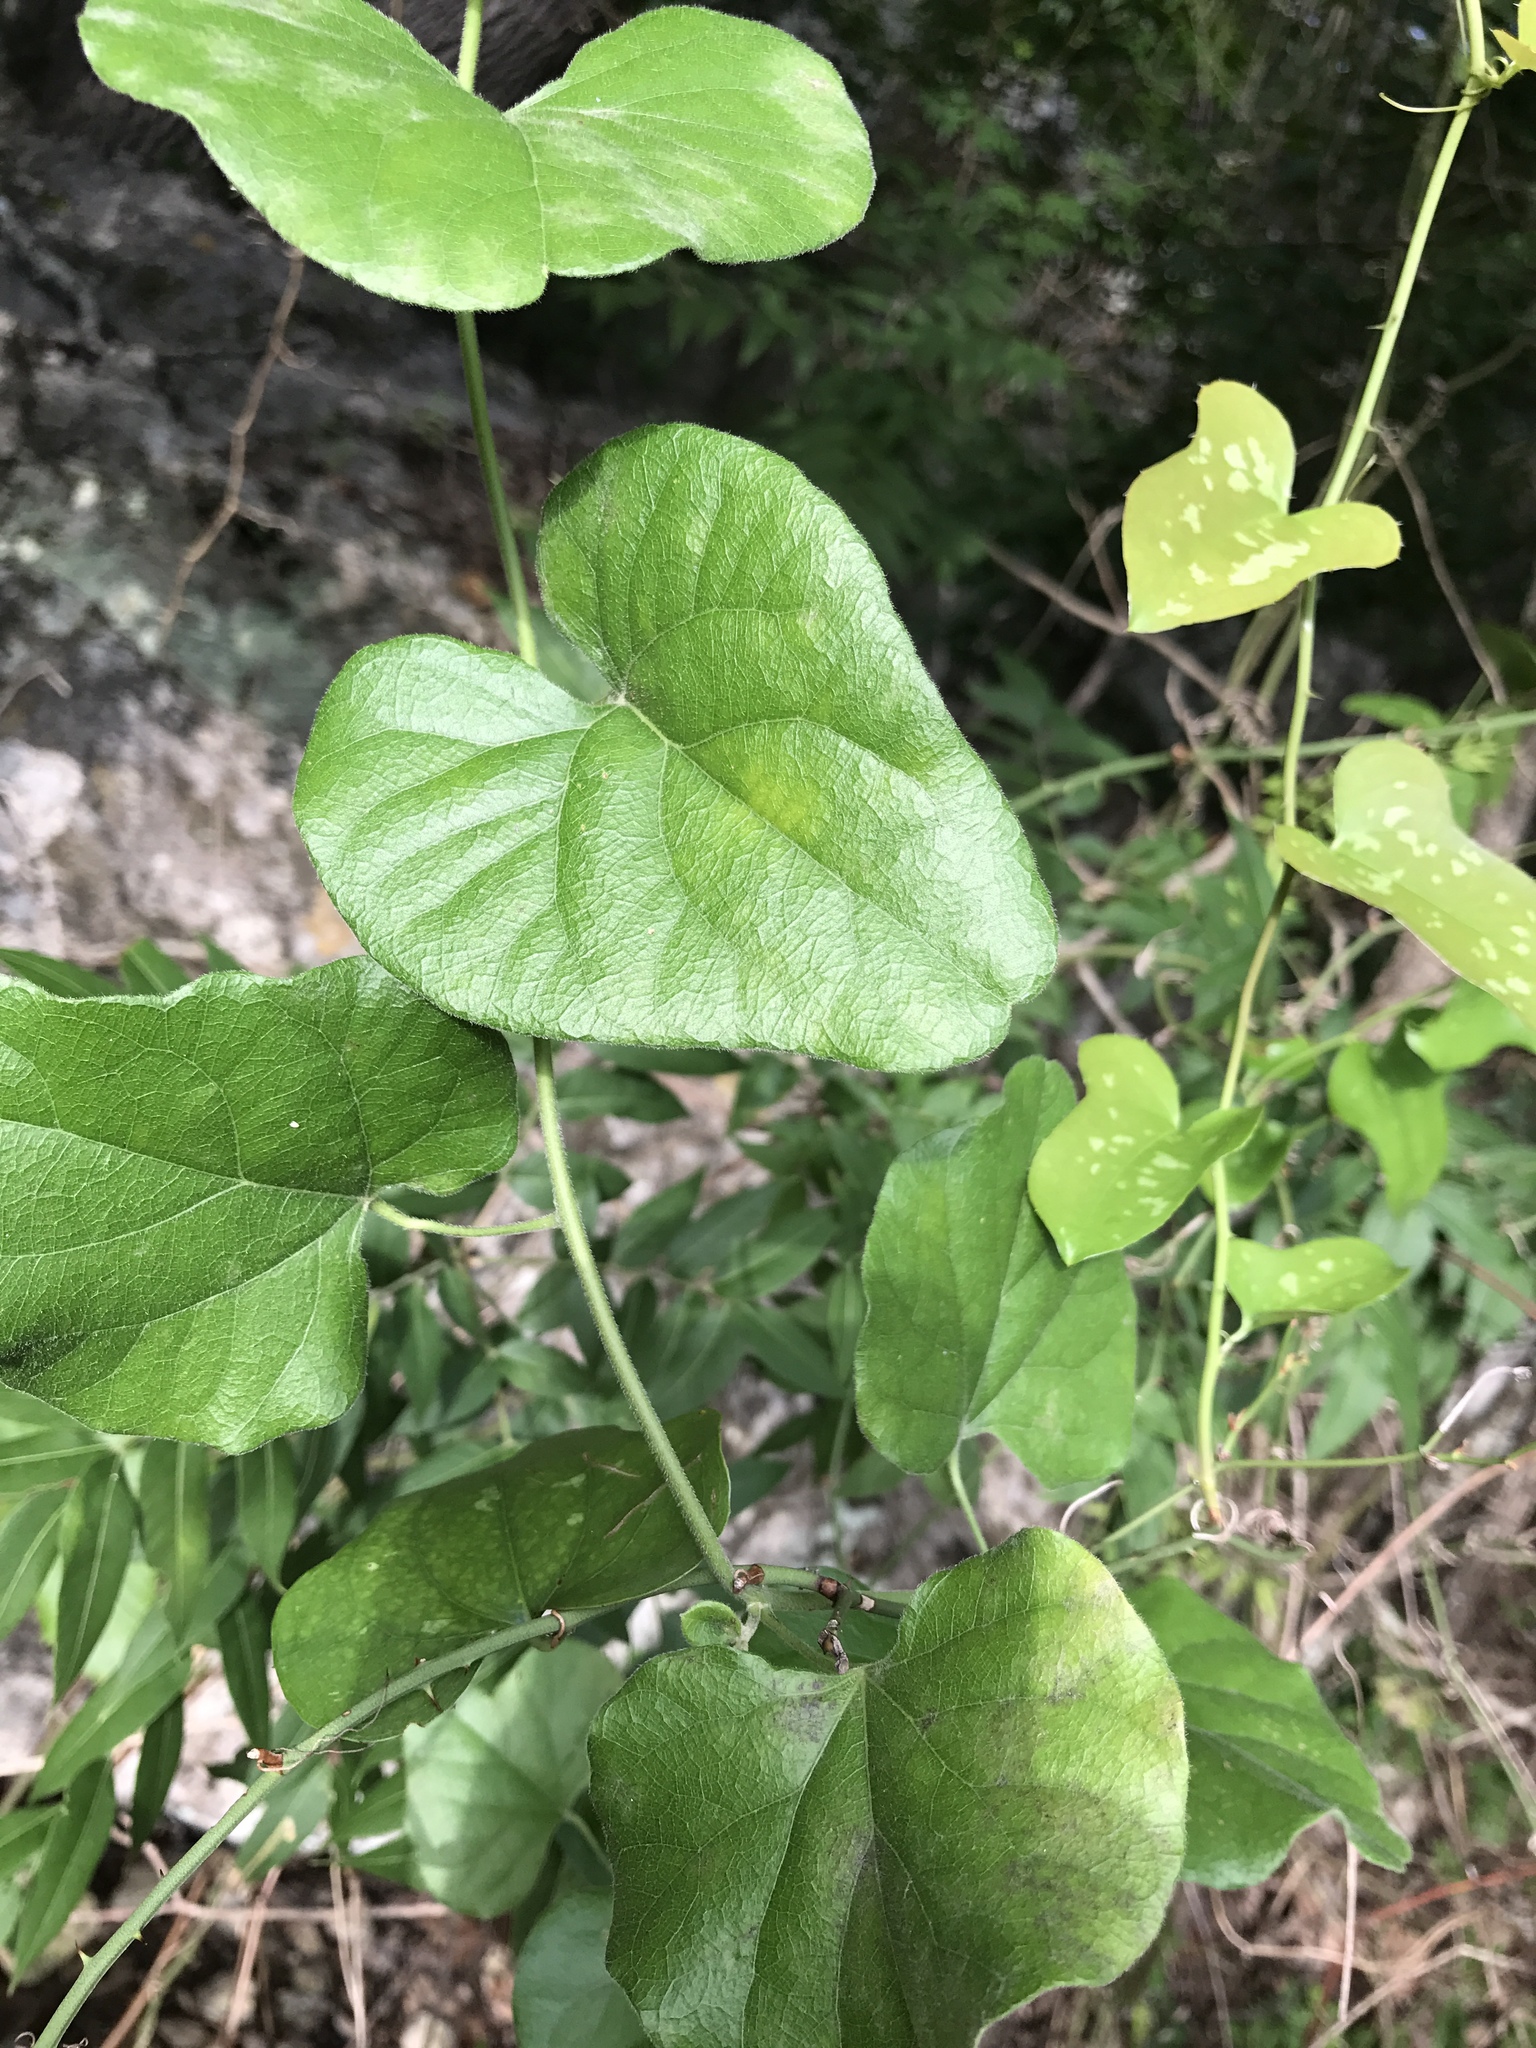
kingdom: Plantae
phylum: Tracheophyta
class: Magnoliopsida
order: Ranunculales
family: Menispermaceae
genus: Cocculus
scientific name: Cocculus carolinus
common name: Carolina moonseed
